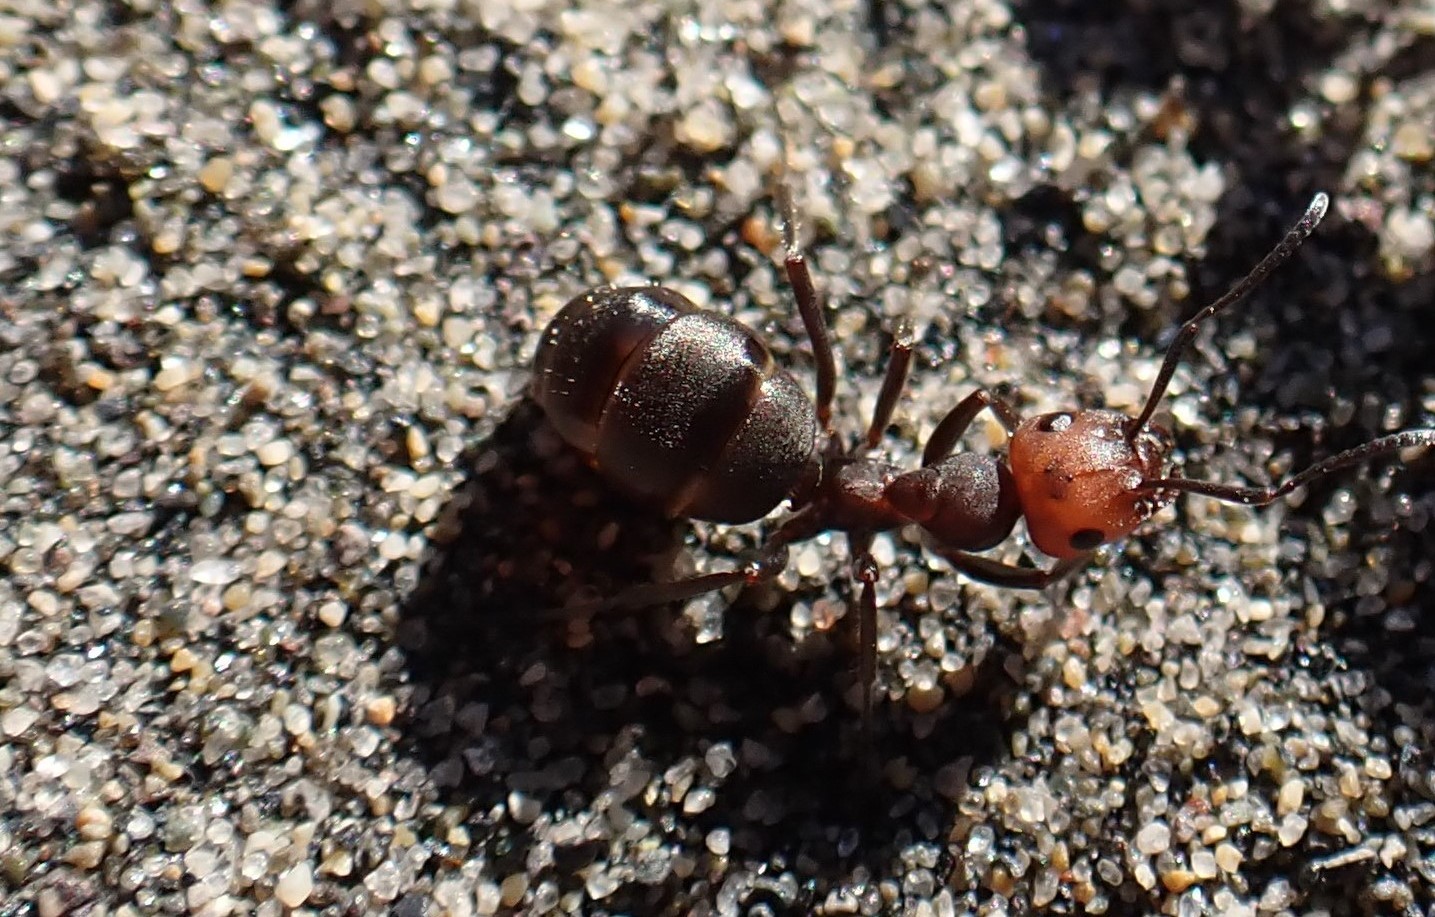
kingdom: Animalia
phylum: Arthropoda
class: Insecta
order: Hymenoptera
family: Formicidae
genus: Formica
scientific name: Formica obscuripes
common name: Western thatching ant
